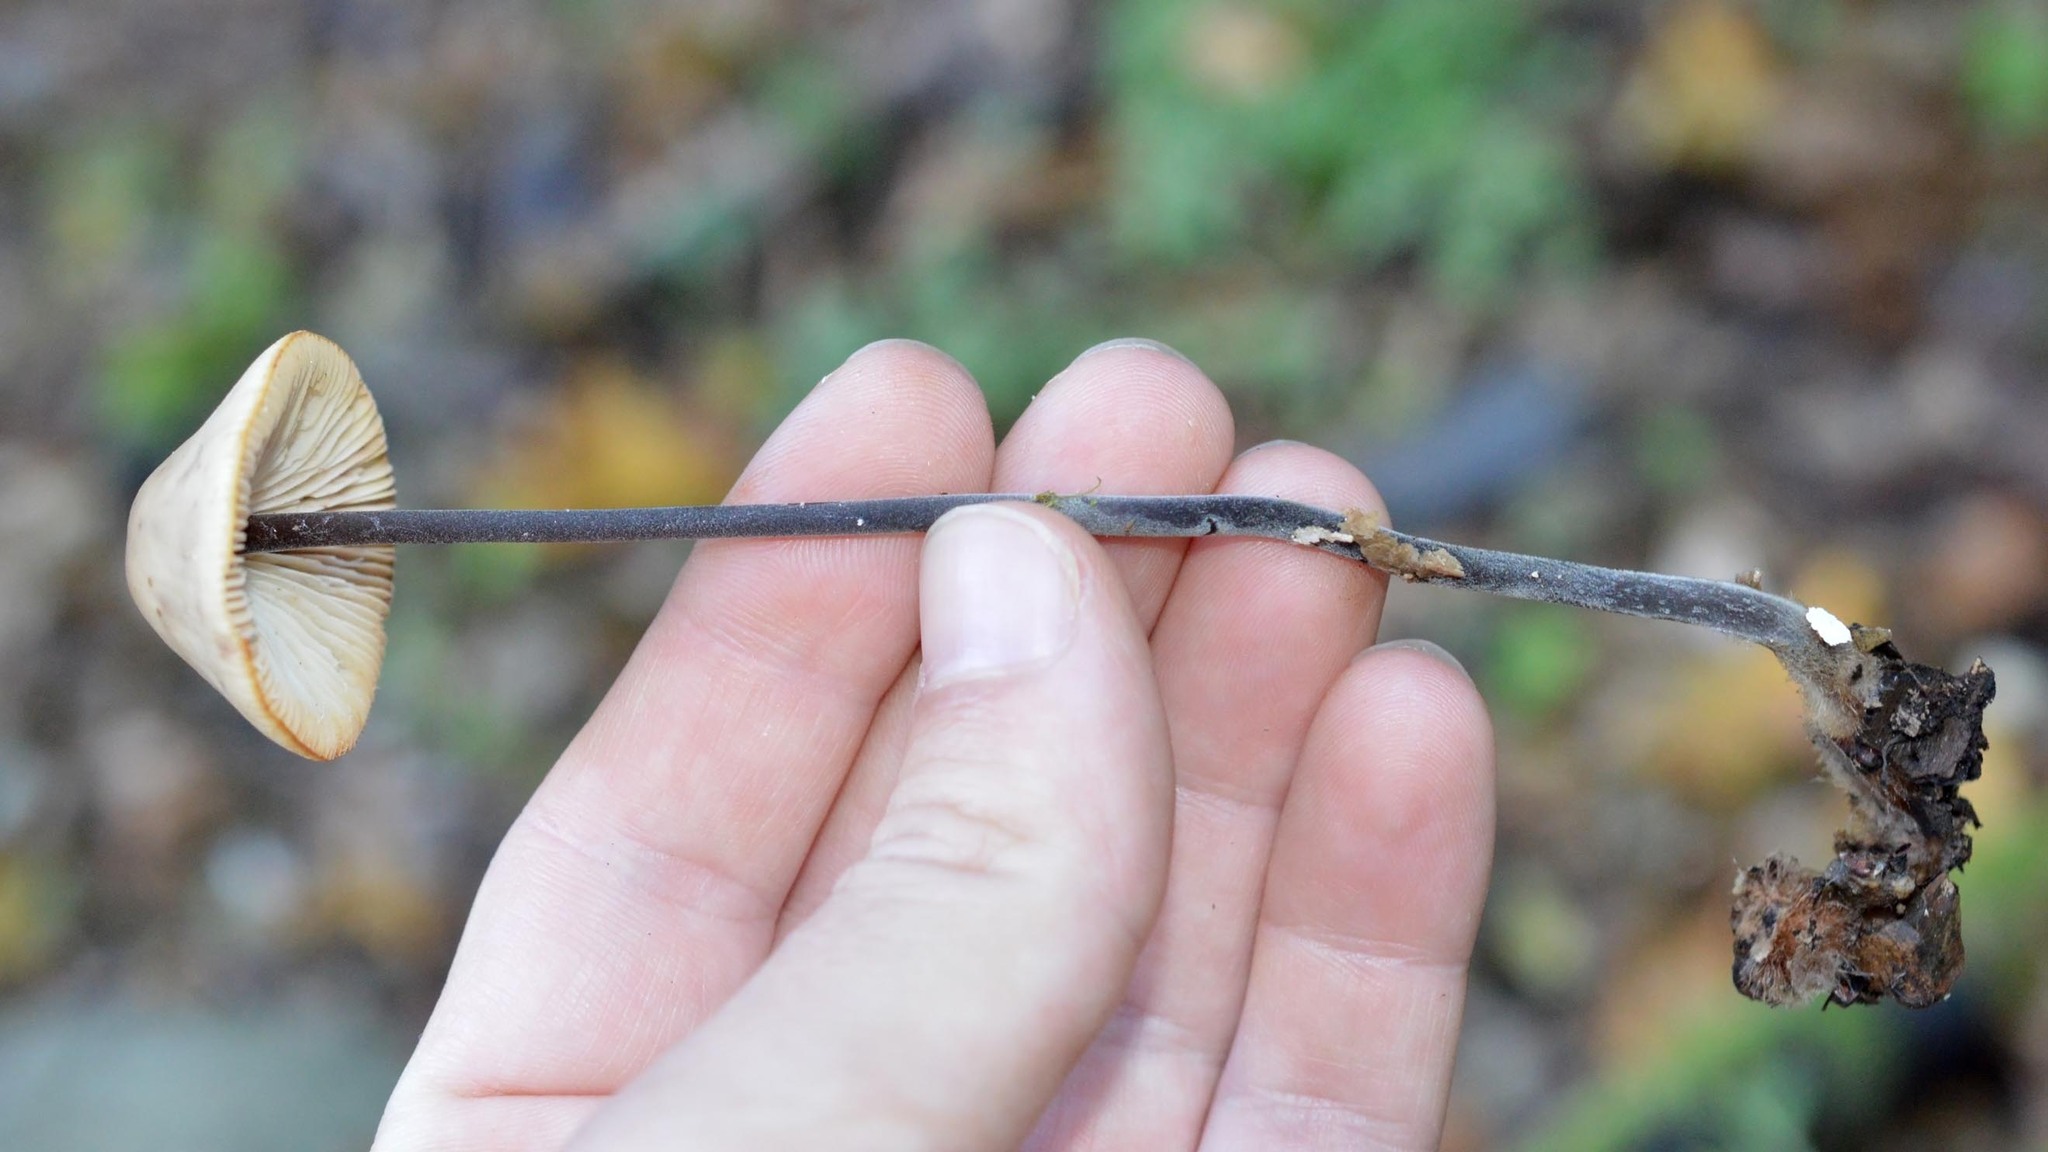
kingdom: Fungi
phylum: Basidiomycota
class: Agaricomycetes
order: Agaricales
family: Omphalotaceae
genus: Mycetinis
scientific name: Mycetinis alliaceus
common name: Garlic parachute
